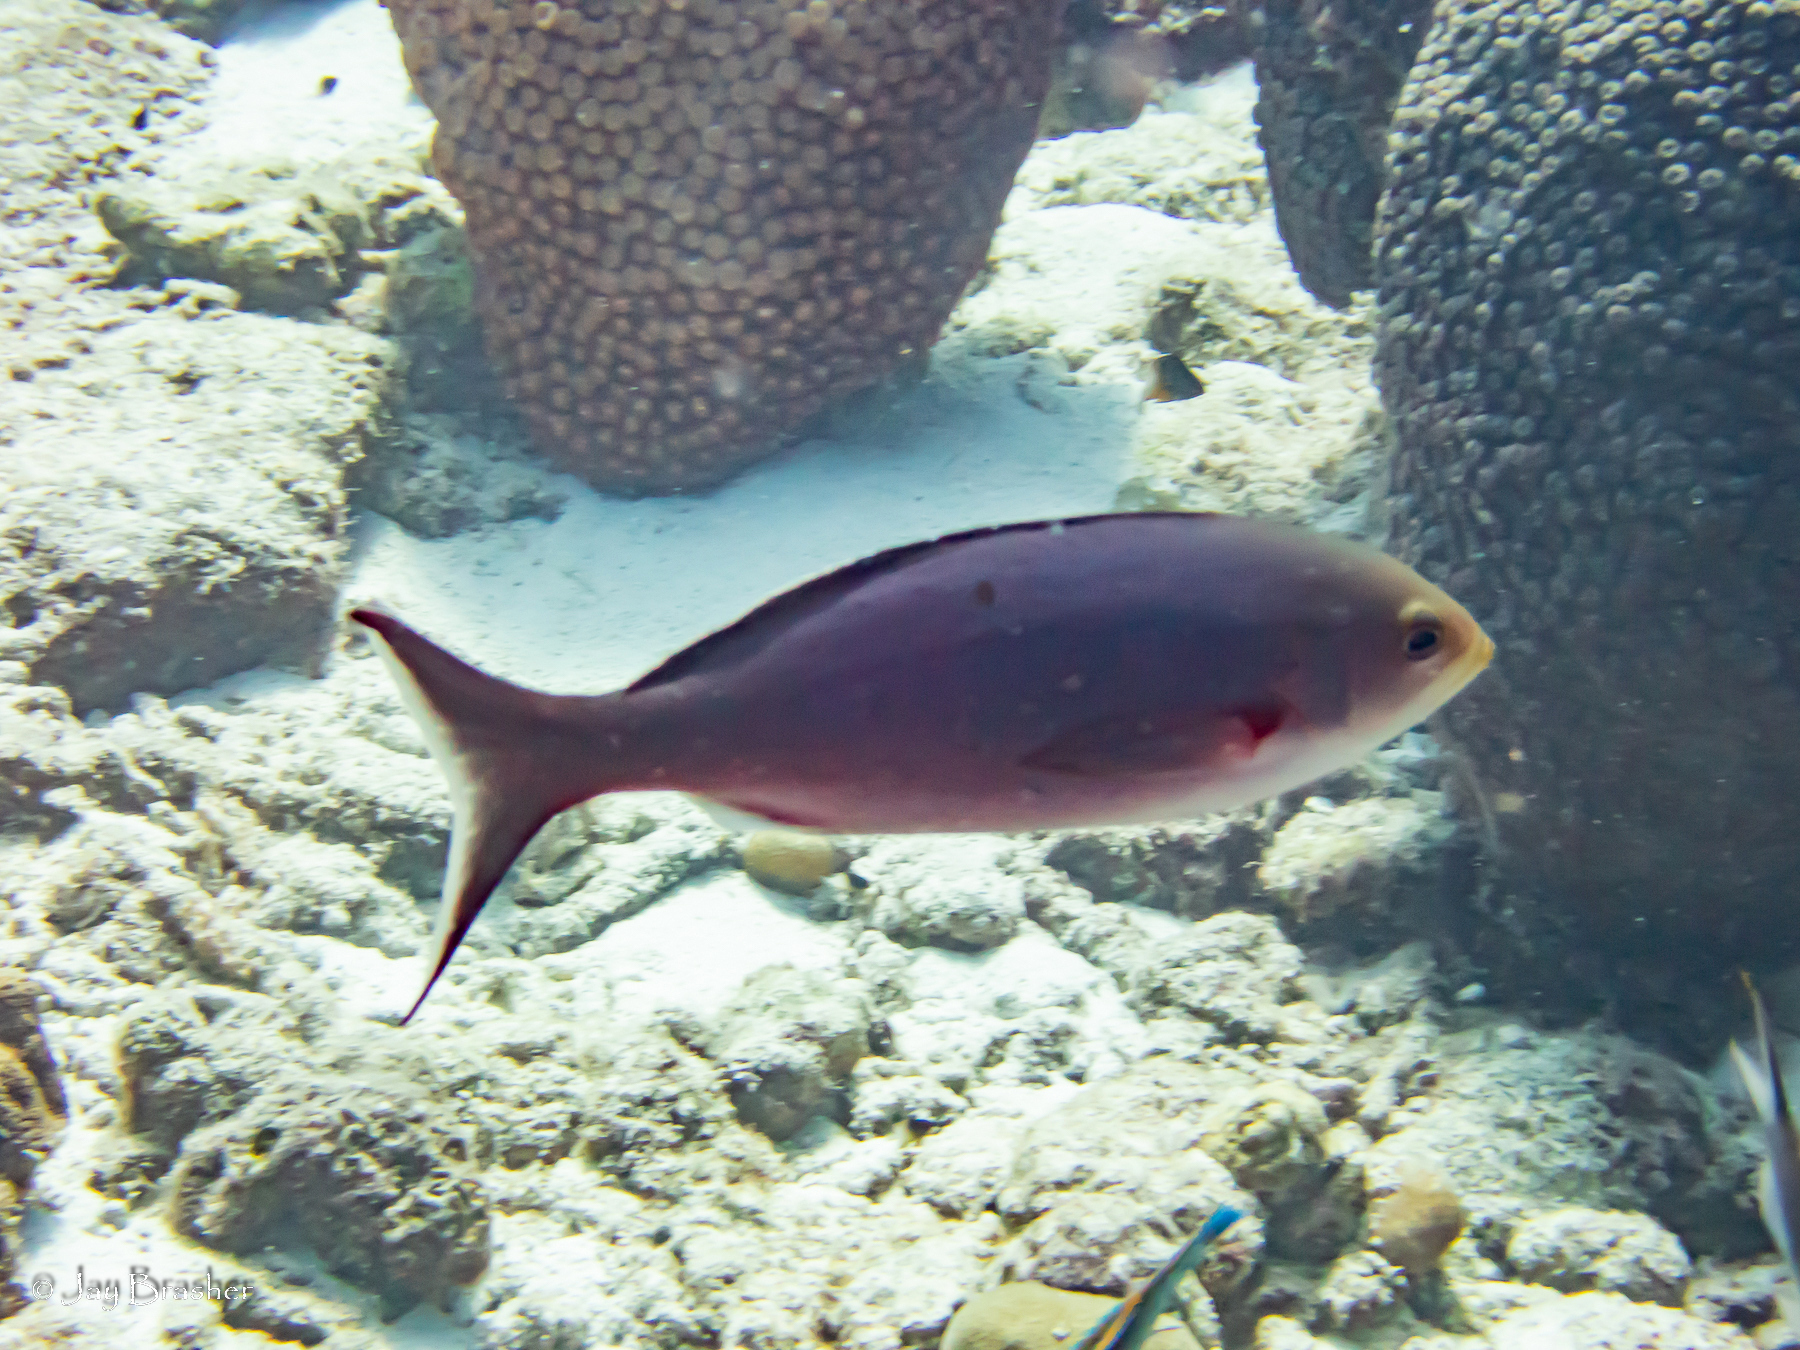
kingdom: Animalia
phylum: Cnidaria
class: Anthozoa
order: Scleractinia
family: Montastraeidae
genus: Montastraea
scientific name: Montastraea cavernosa
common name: Great star coral
